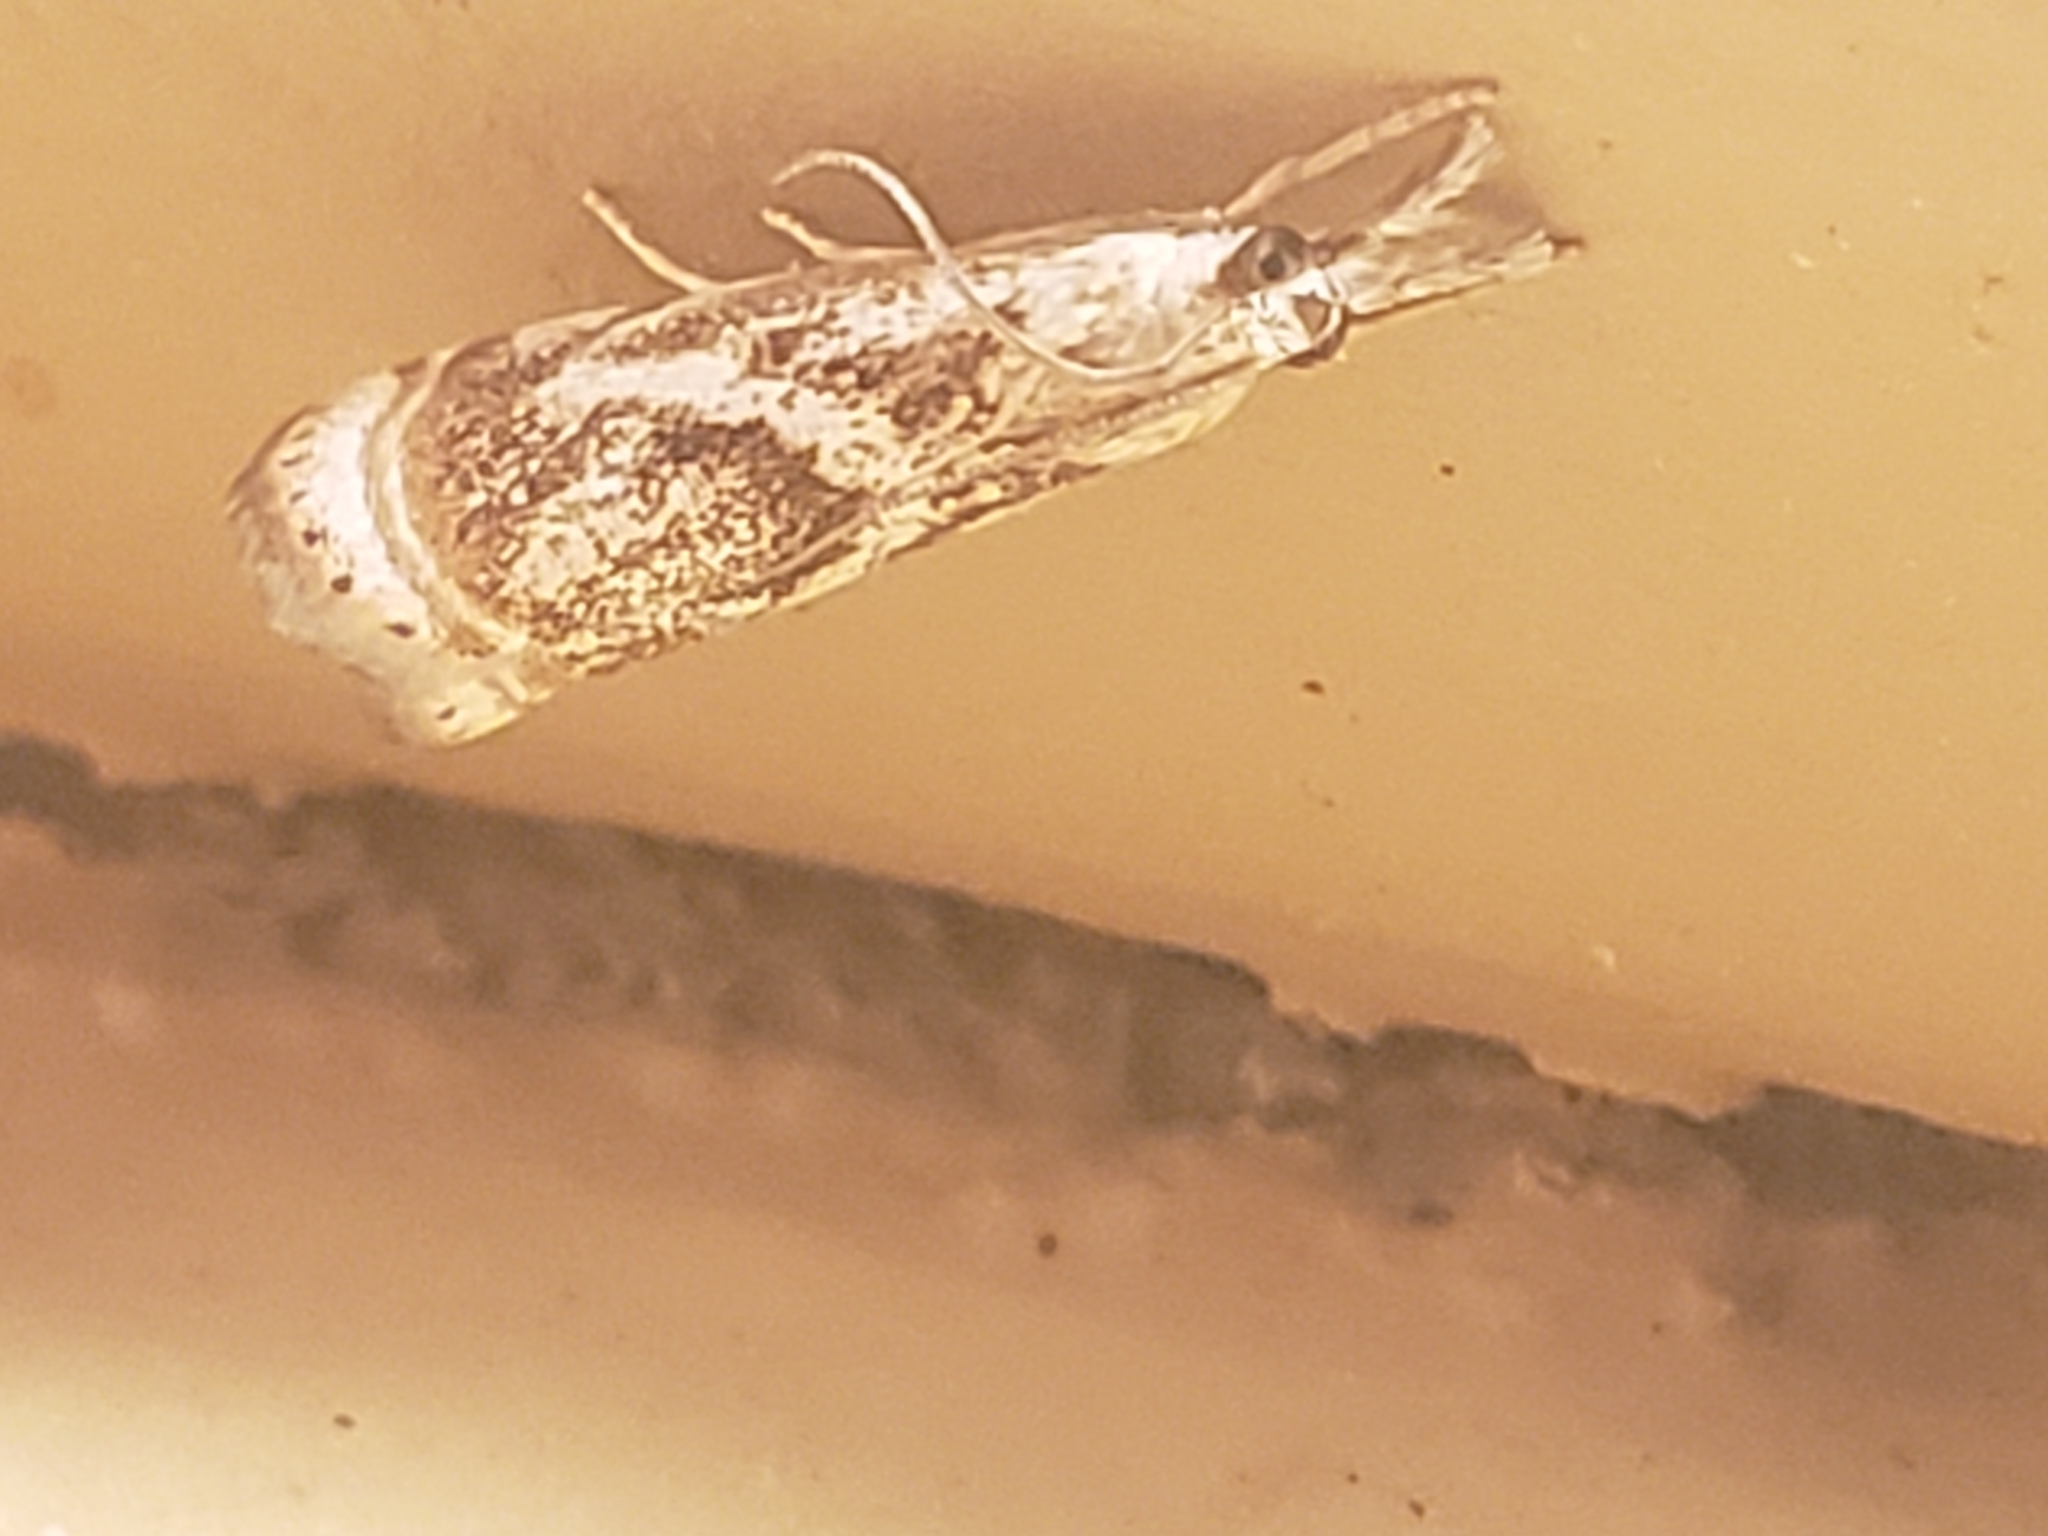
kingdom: Animalia
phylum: Arthropoda
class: Insecta
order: Lepidoptera
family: Crambidae
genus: Microcrambus
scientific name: Microcrambus elegans
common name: Elegant grass-veneer
